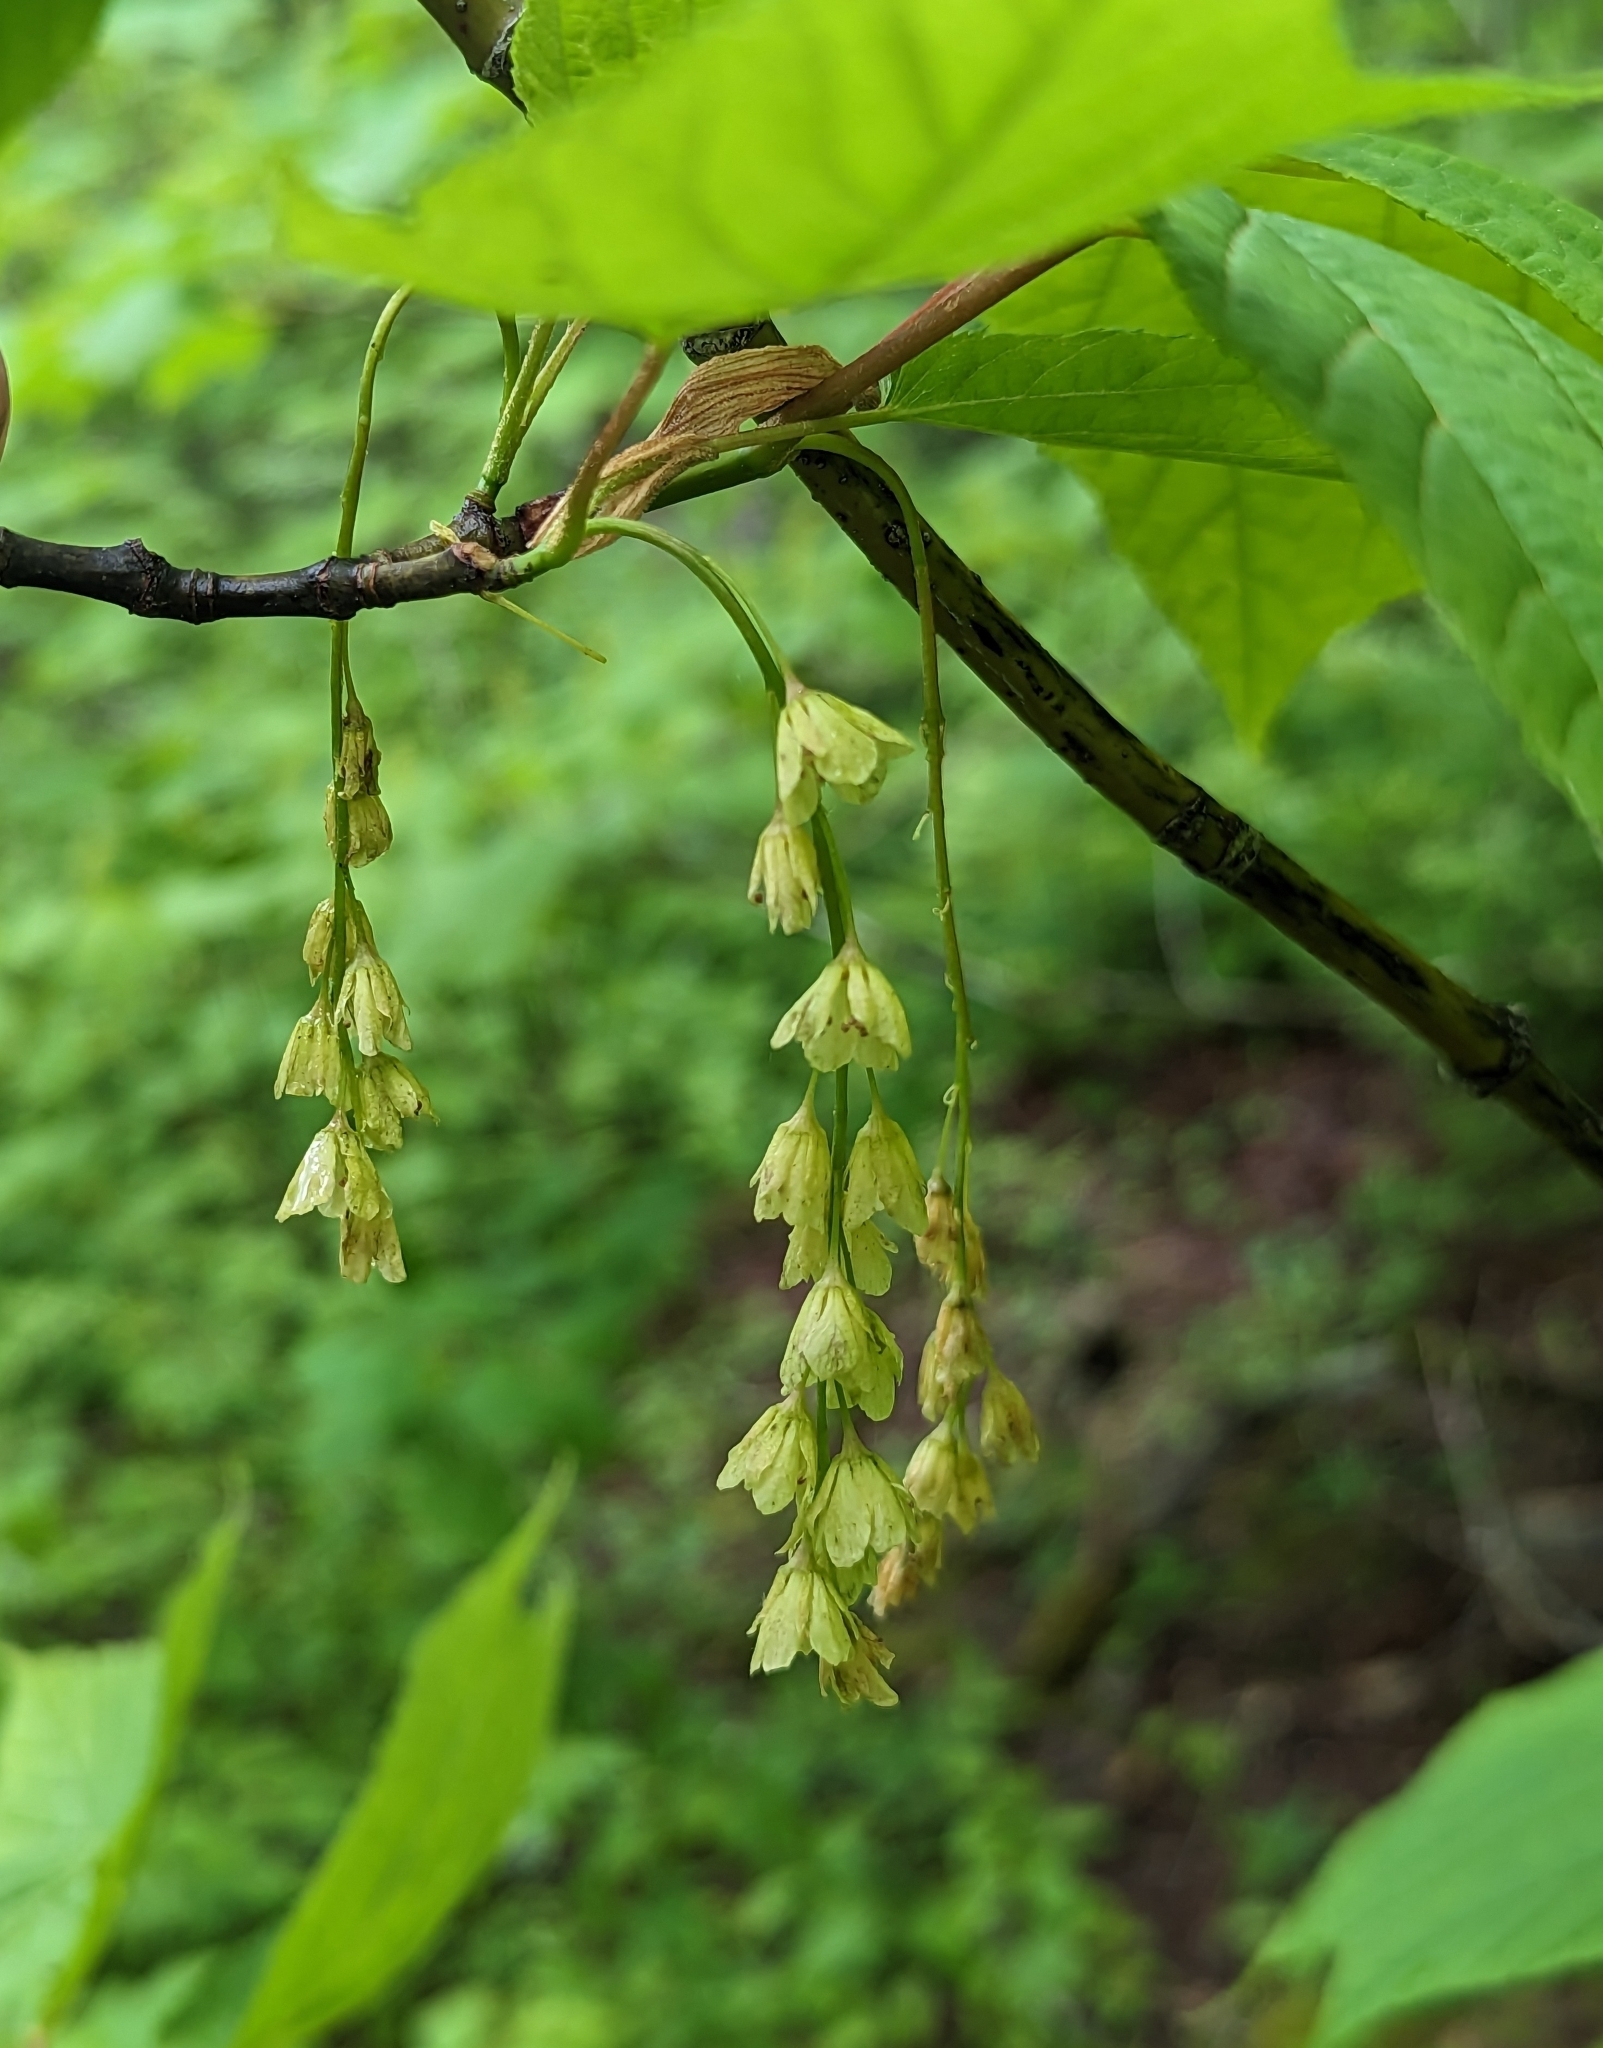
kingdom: Plantae
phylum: Tracheophyta
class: Magnoliopsida
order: Sapindales
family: Sapindaceae
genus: Acer
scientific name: Acer pensylvanicum
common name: Moosewood
